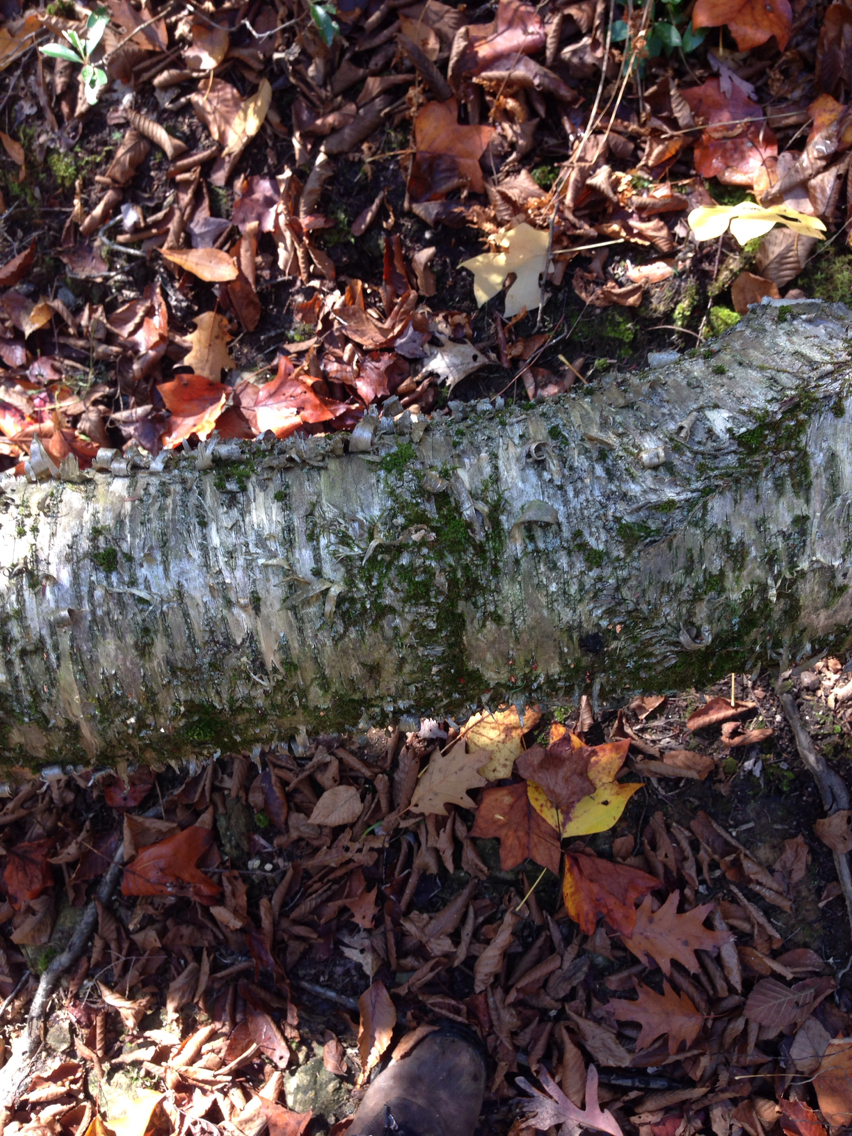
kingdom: Plantae
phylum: Tracheophyta
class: Magnoliopsida
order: Fagales
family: Betulaceae
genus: Betula
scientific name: Betula alleghaniensis
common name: Yellow birch
